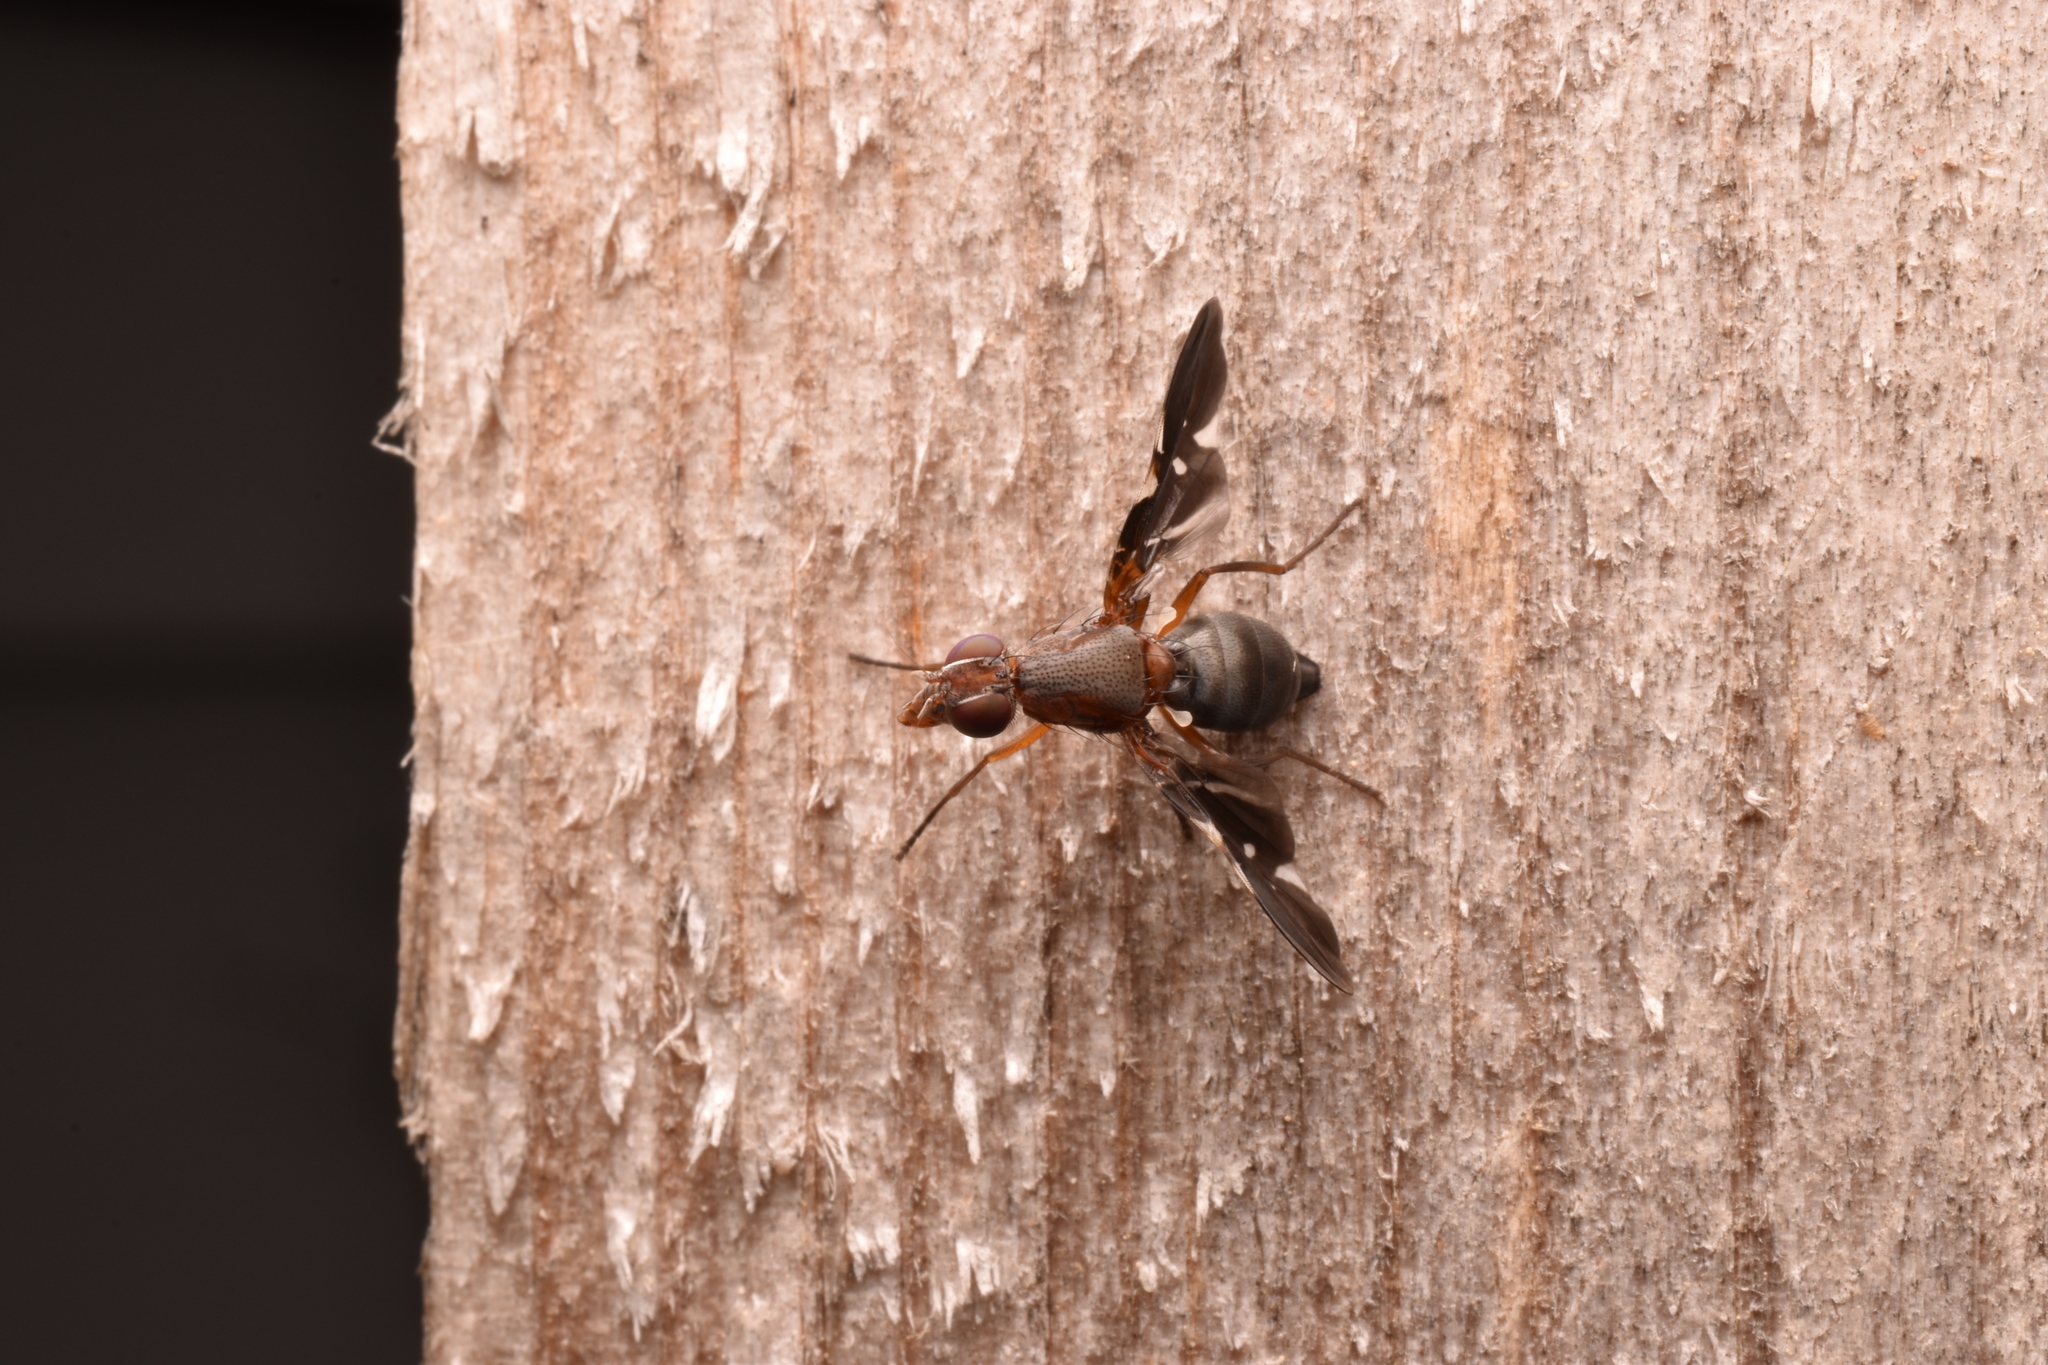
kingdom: Animalia
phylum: Arthropoda
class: Insecta
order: Diptera
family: Ulidiidae
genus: Delphinia
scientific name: Delphinia picta
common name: Common picture-winged fly
